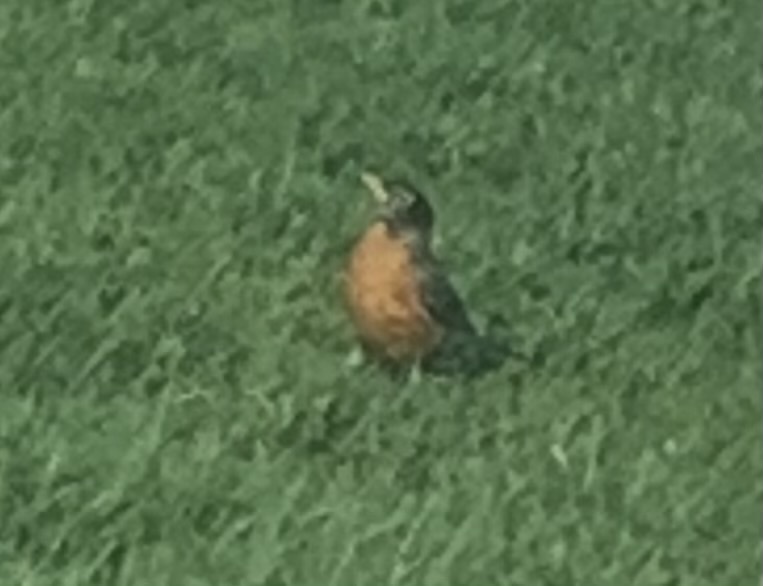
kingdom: Animalia
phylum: Chordata
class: Aves
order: Passeriformes
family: Turdidae
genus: Turdus
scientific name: Turdus migratorius
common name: American robin
